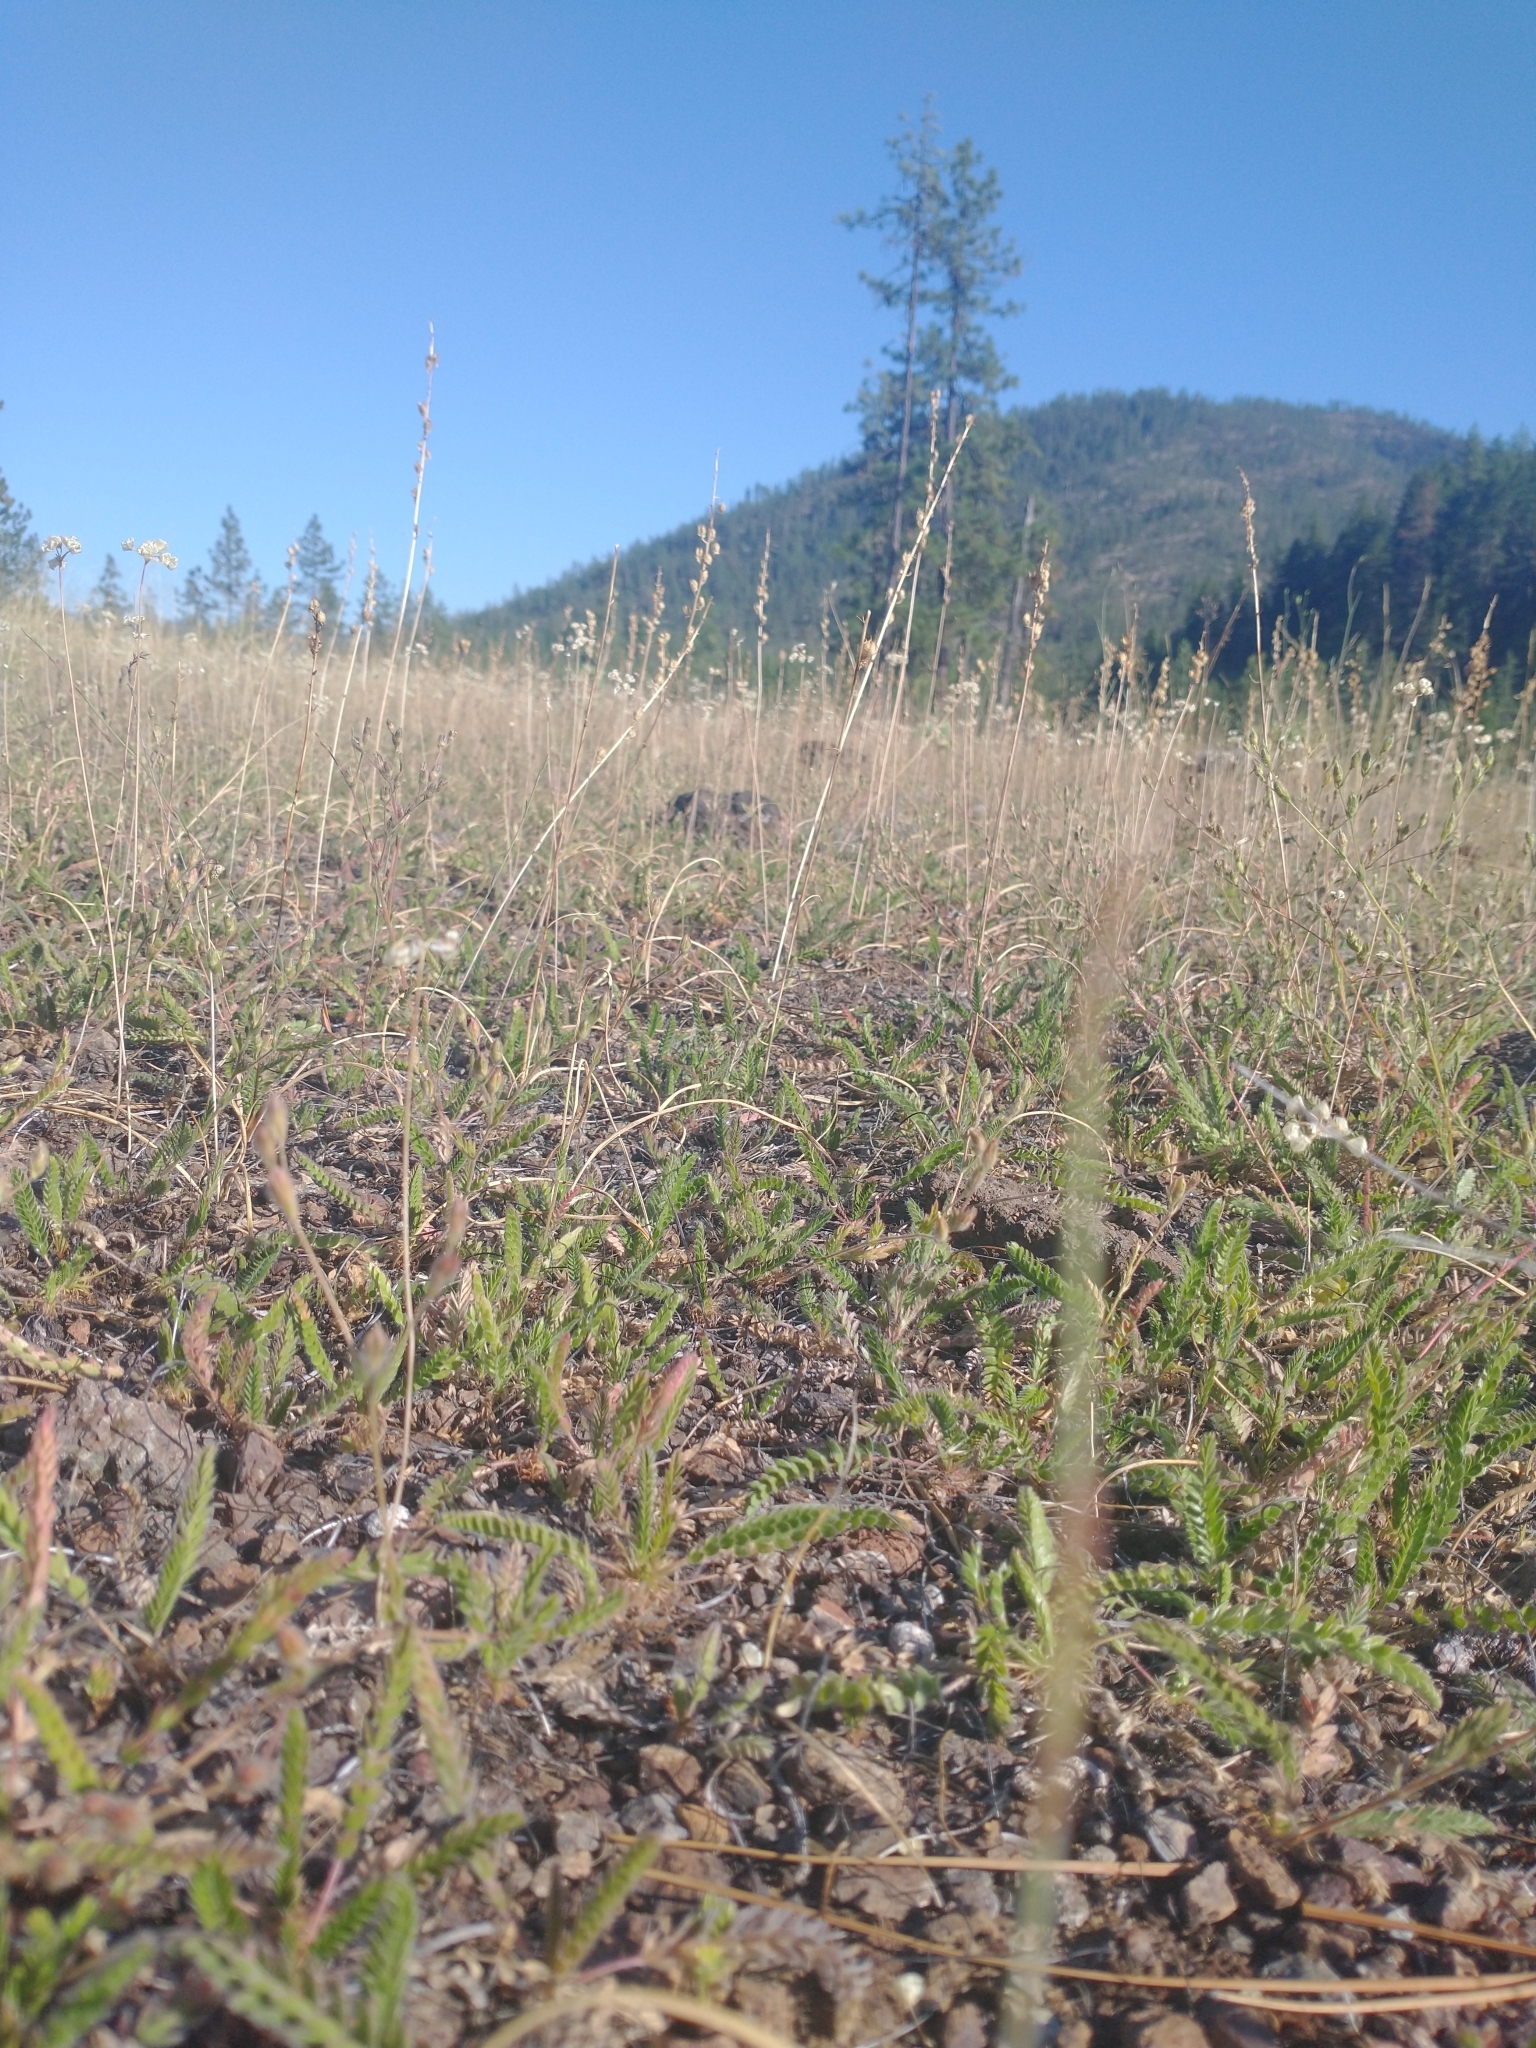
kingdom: Plantae
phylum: Tracheophyta
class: Magnoliopsida
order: Rosales
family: Rosaceae
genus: Potentilla
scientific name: Potentilla howellii
